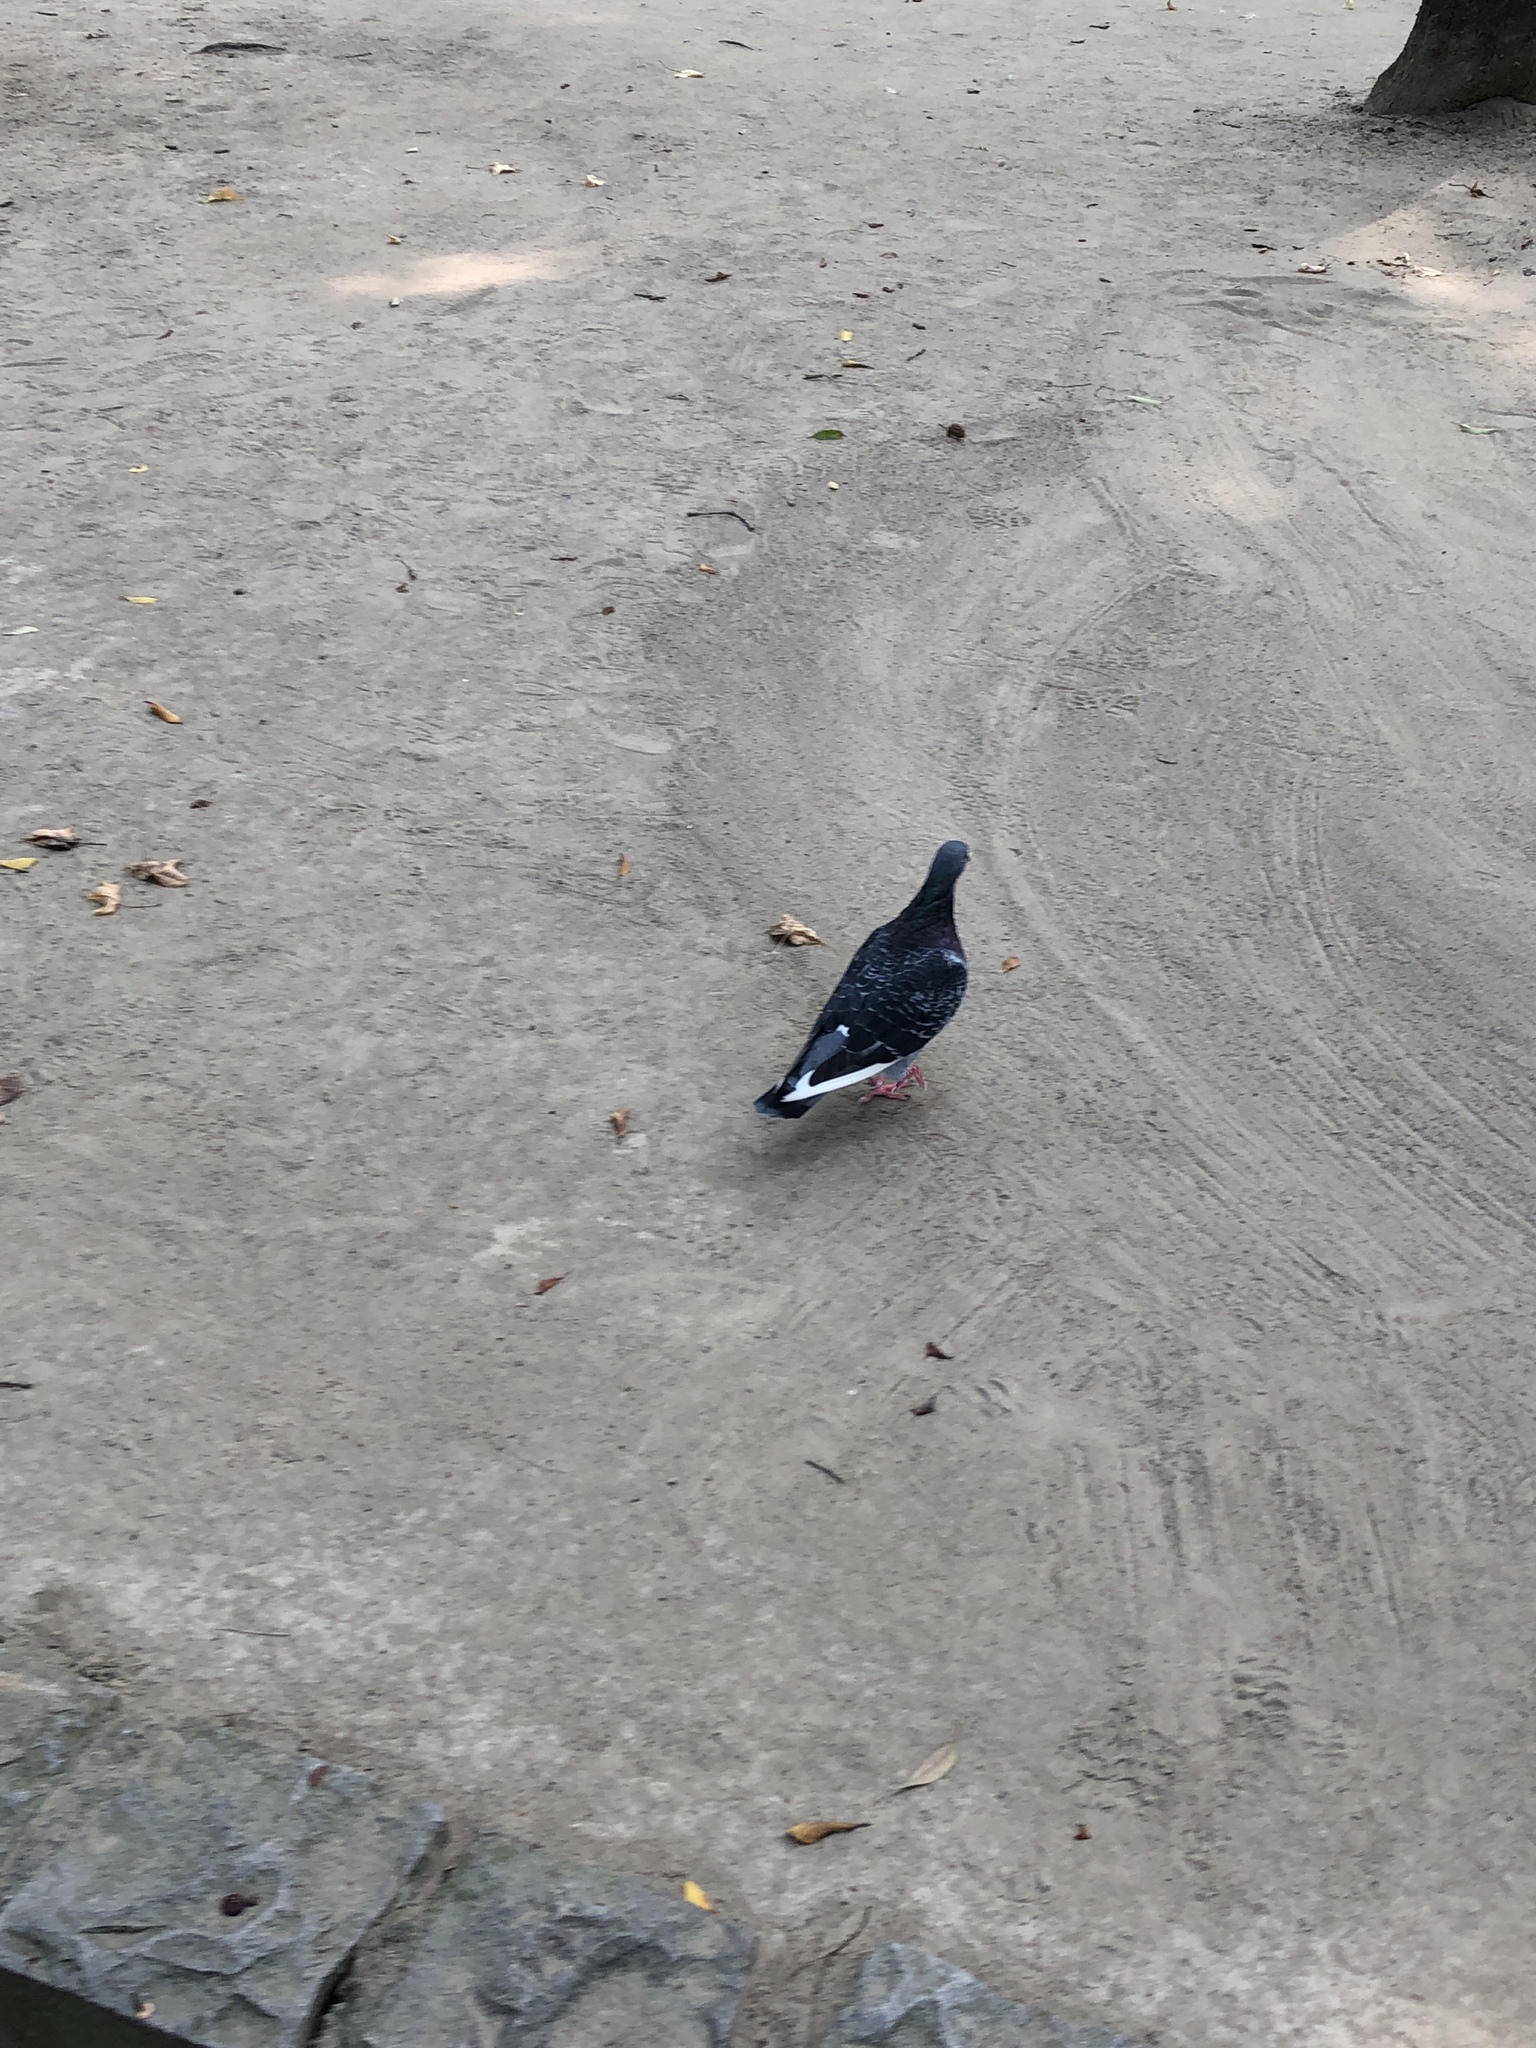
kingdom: Animalia
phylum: Chordata
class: Aves
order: Columbiformes
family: Columbidae
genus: Columba
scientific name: Columba livia
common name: Rock pigeon
